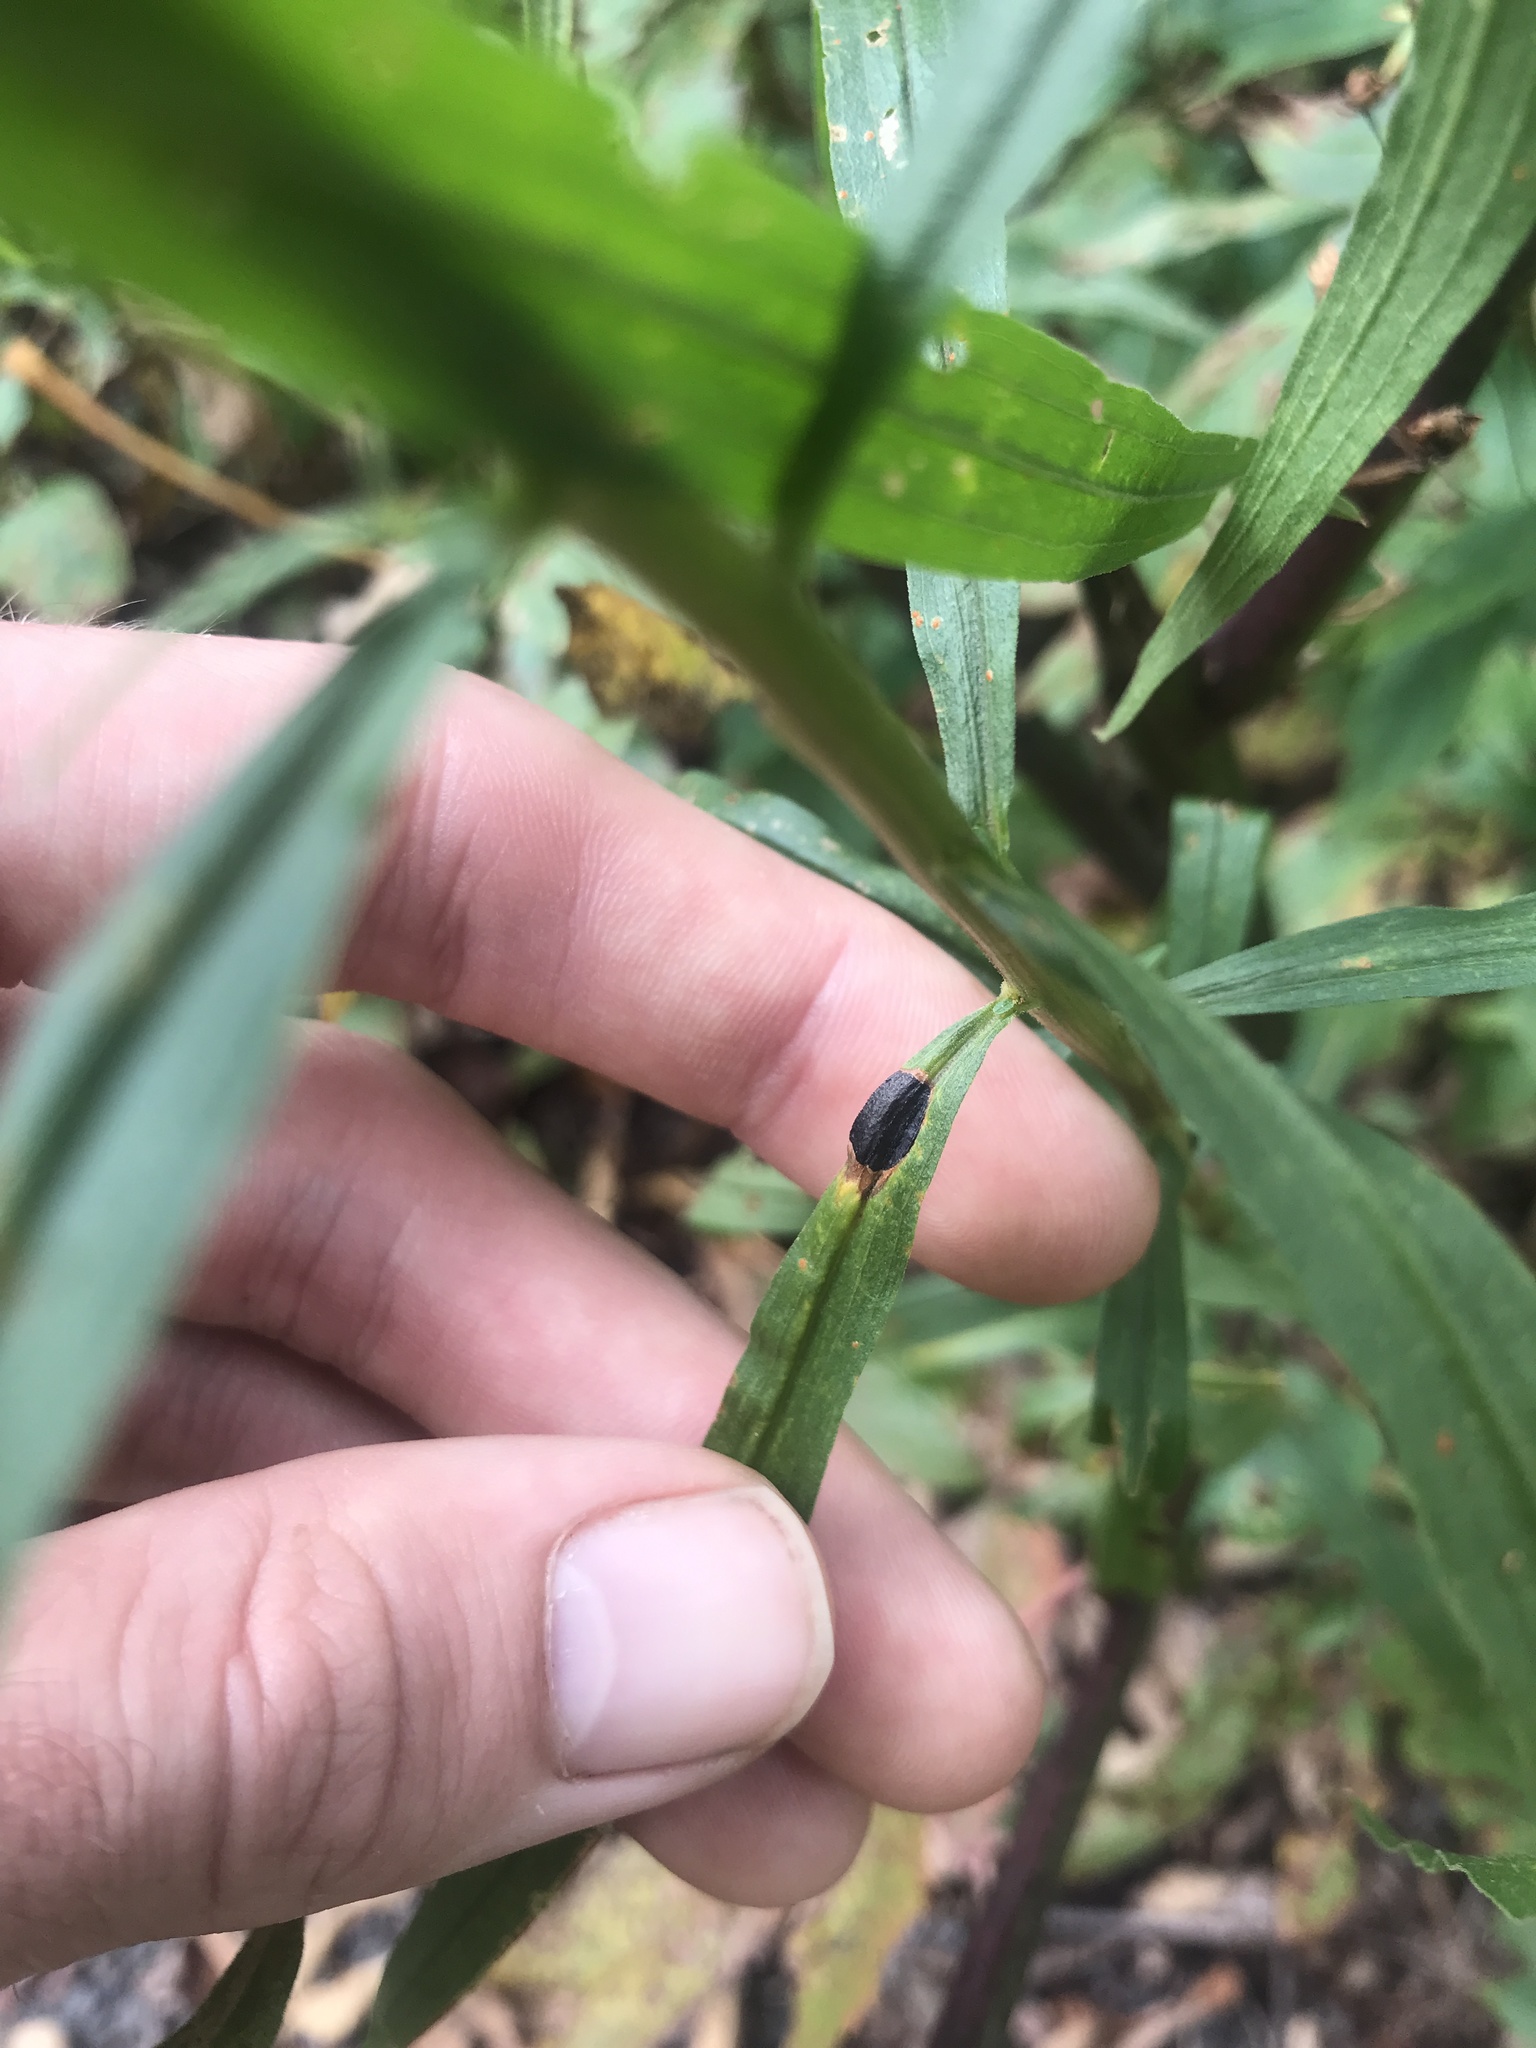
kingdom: Animalia
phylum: Arthropoda
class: Insecta
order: Diptera
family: Cecidomyiidae
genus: Asteromyia
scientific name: Asteromyia euthamiae
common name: Euthamia leaf gall midge
